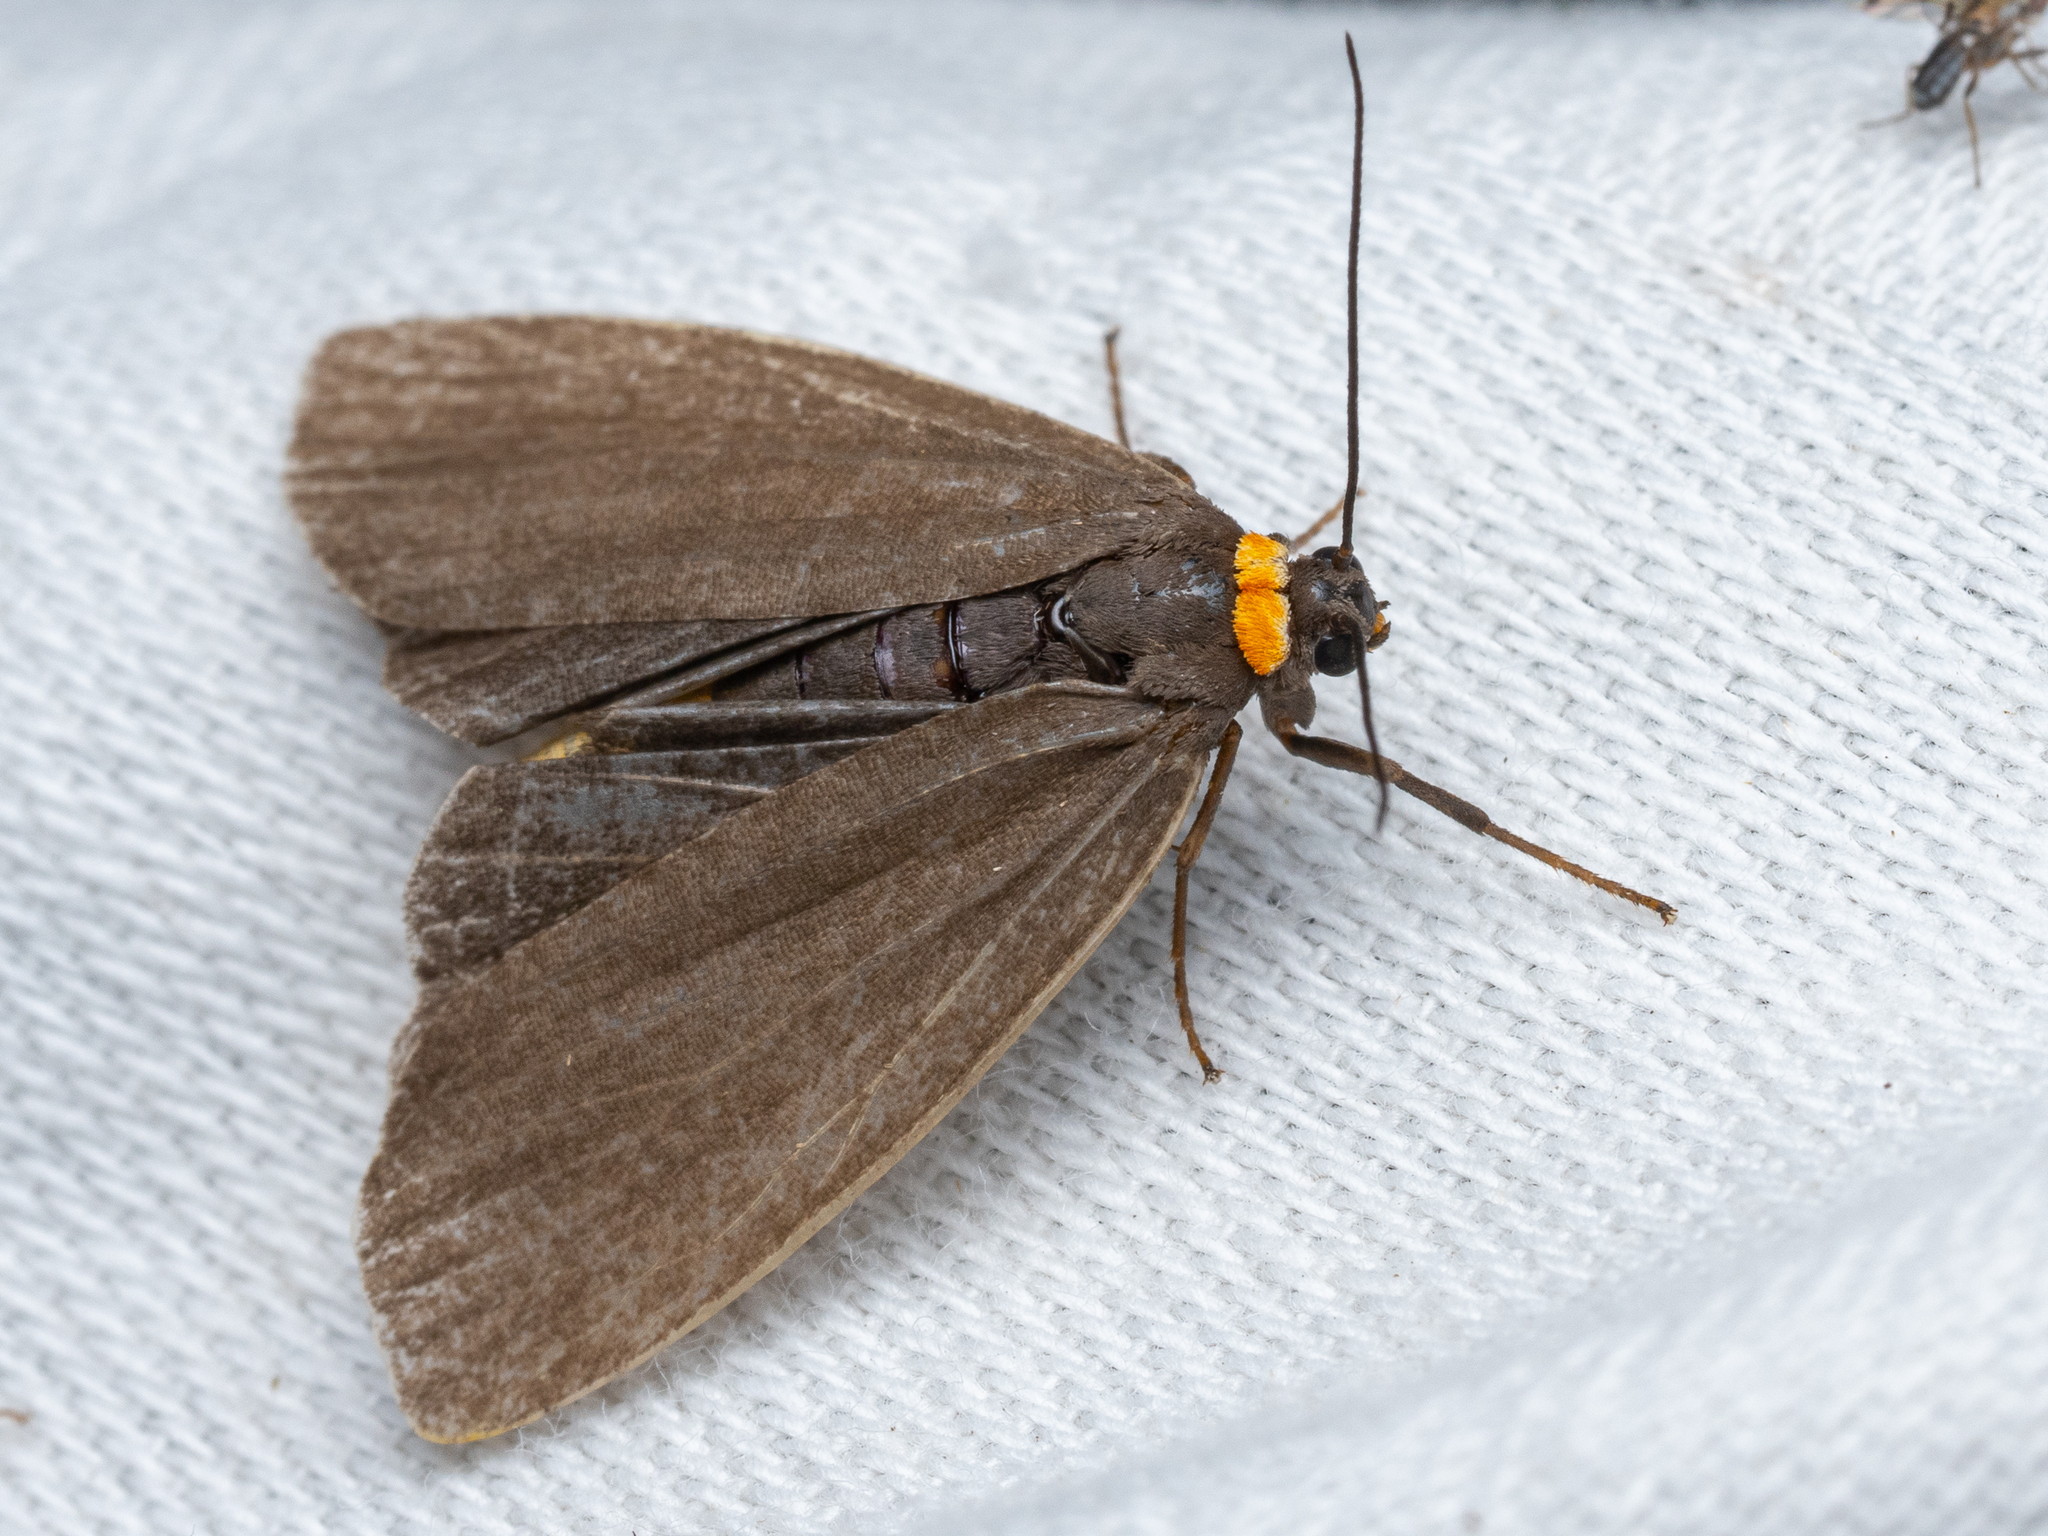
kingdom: Animalia
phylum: Arthropoda
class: Insecta
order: Lepidoptera
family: Erebidae
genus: Atolmis
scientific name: Atolmis rubricollis
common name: Red-necked footman
